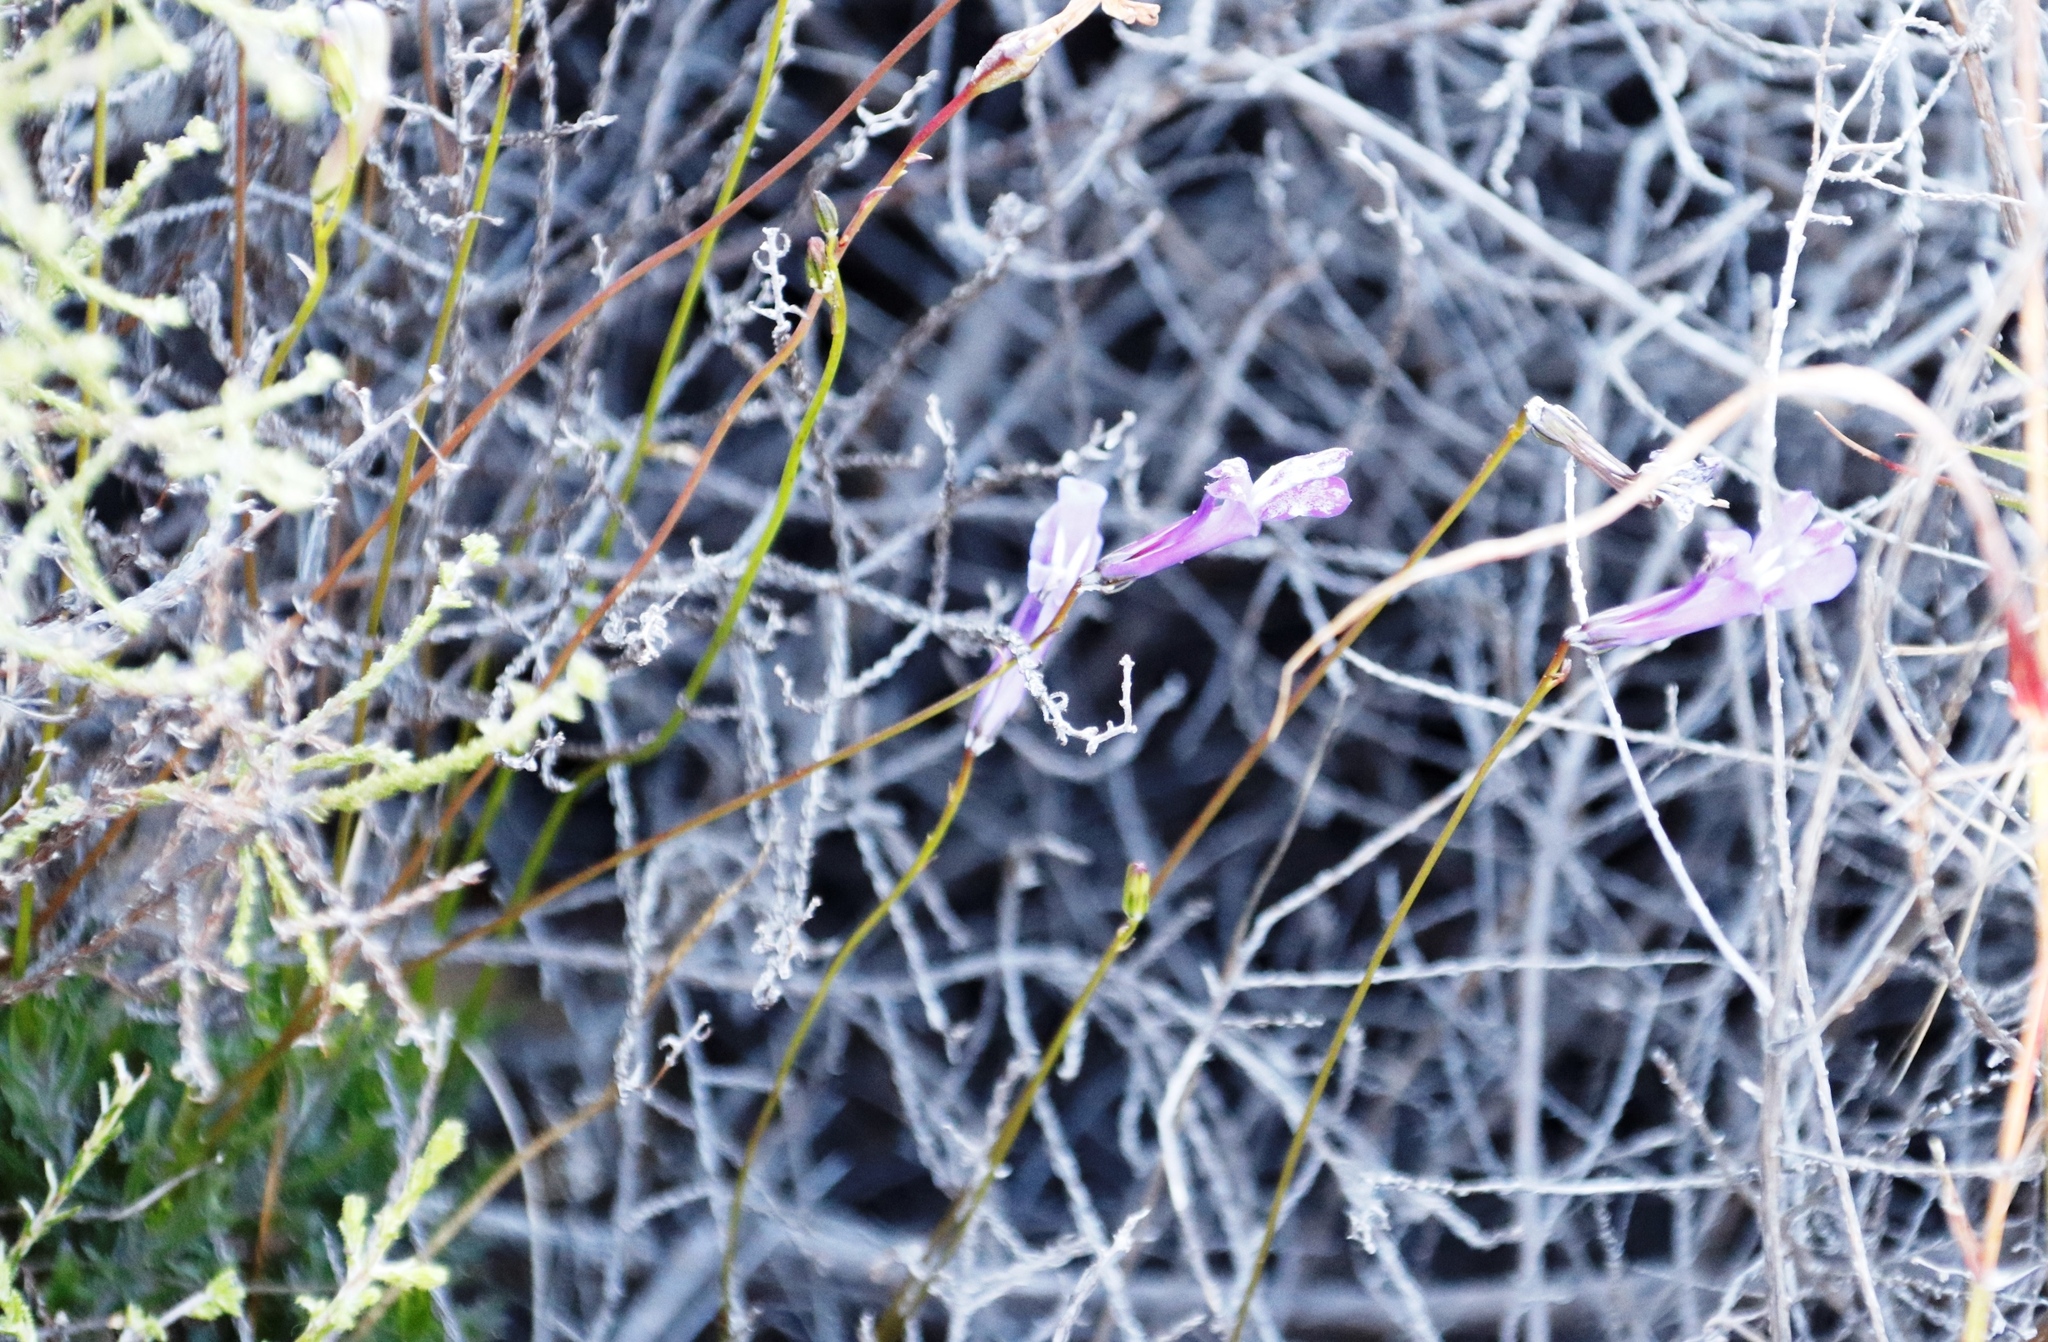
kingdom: Plantae
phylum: Tracheophyta
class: Magnoliopsida
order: Asterales
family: Campanulaceae
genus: Lobelia
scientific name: Lobelia coronopifolia
